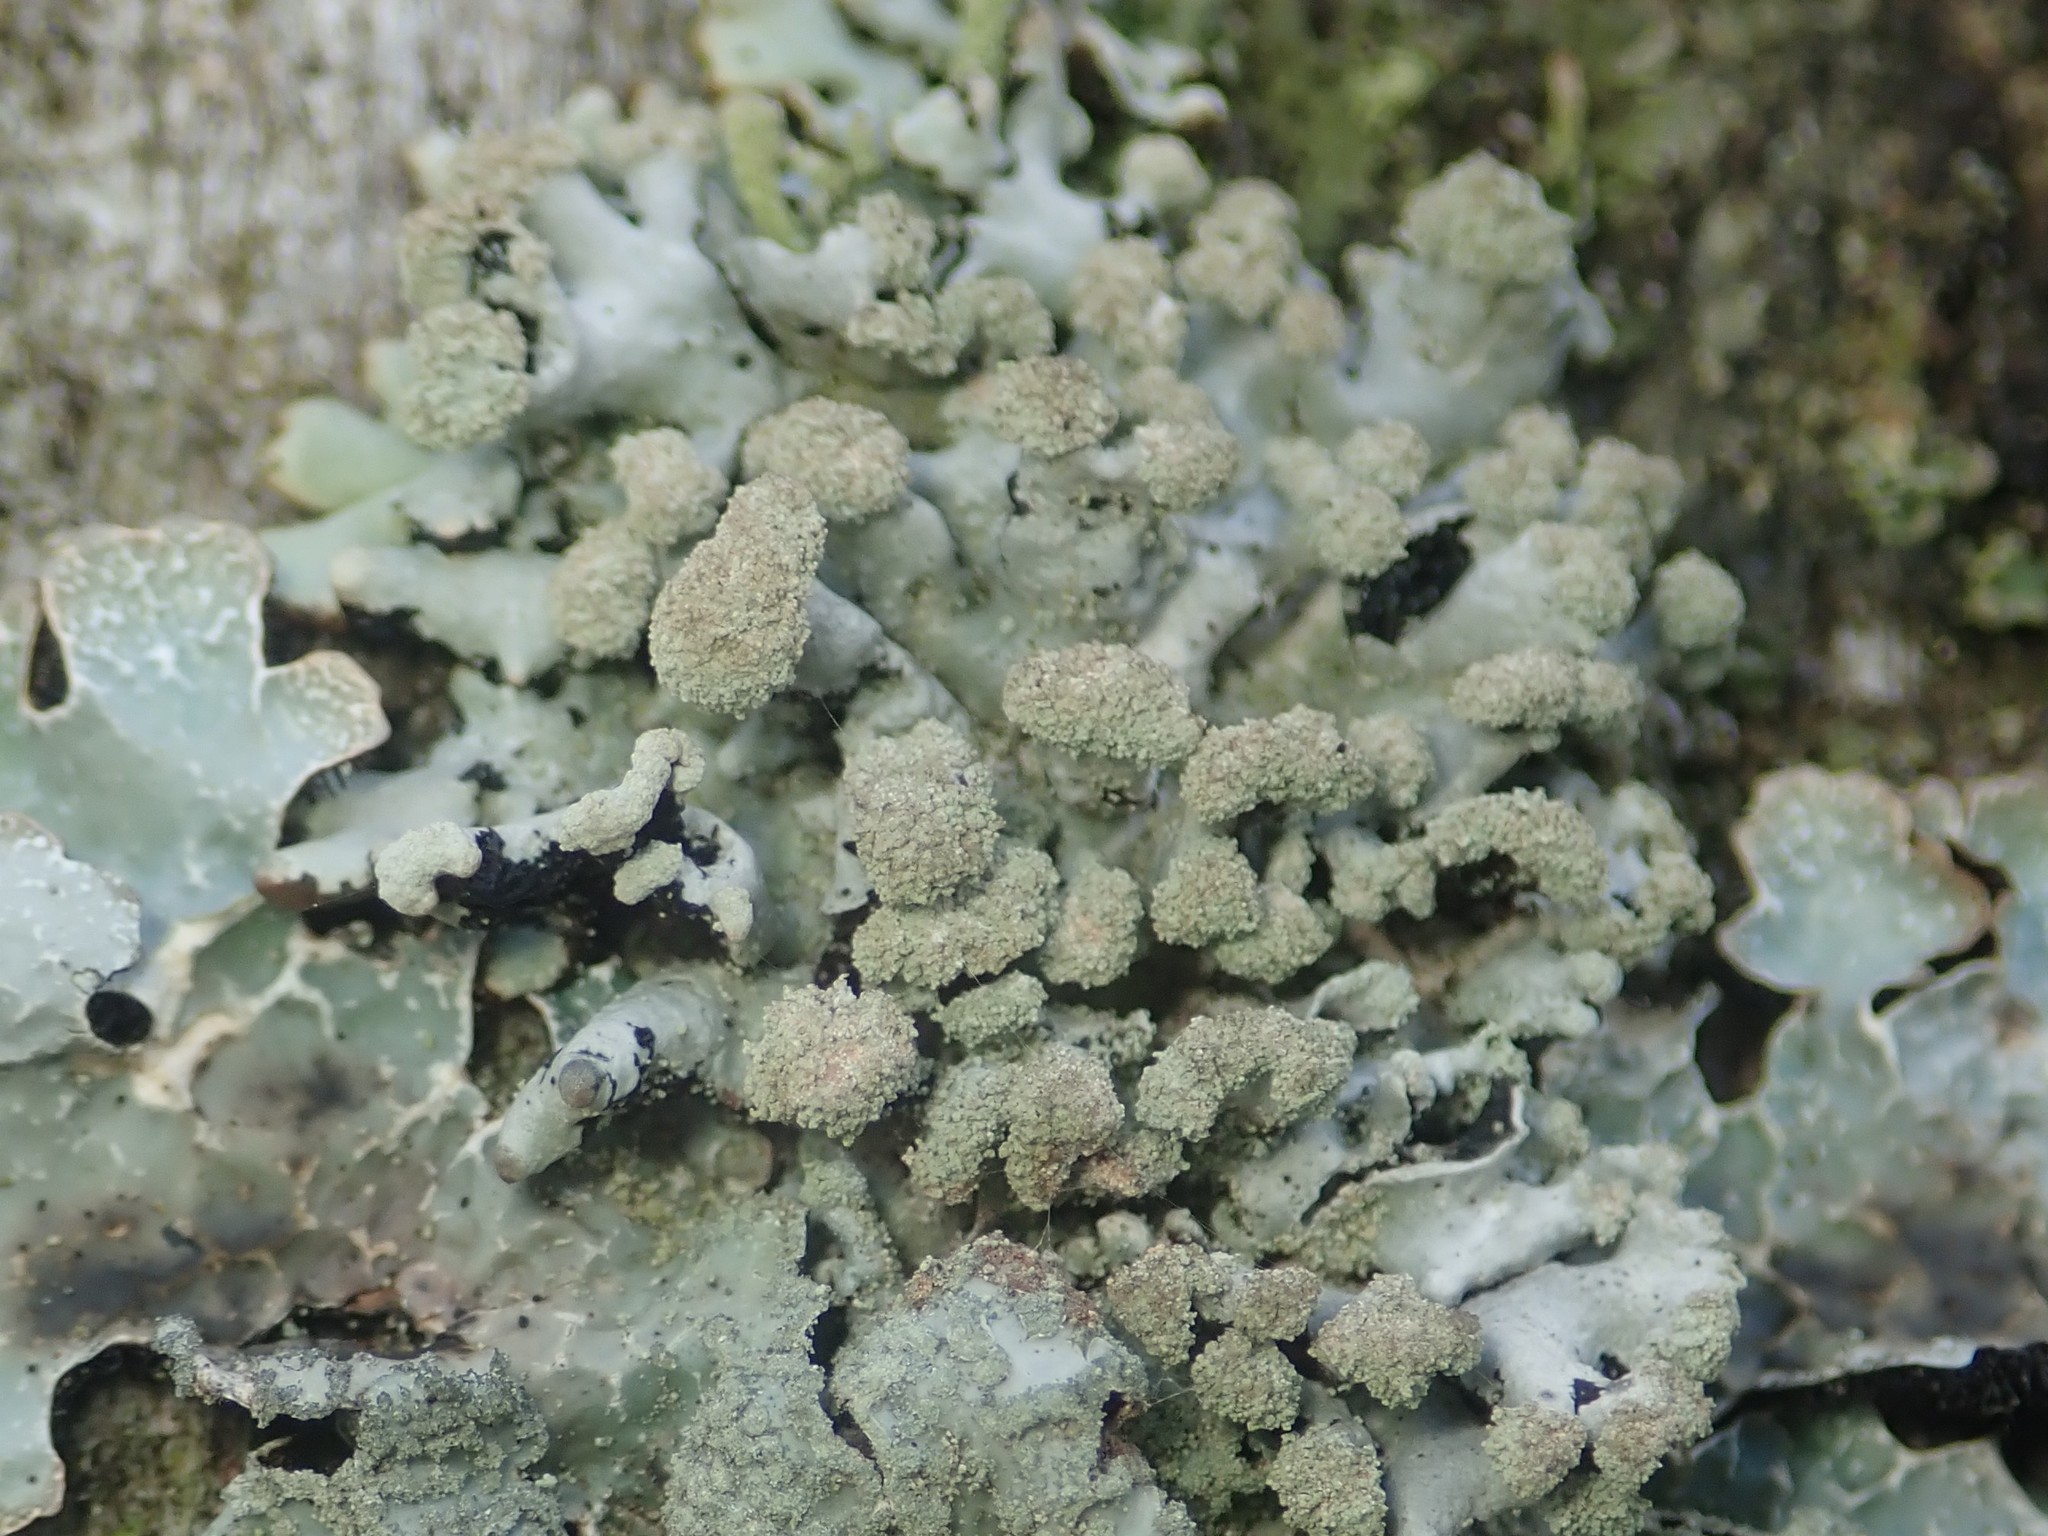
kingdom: Fungi
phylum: Ascomycota
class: Lecanoromycetes
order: Lecanorales
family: Parmeliaceae
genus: Hypogymnia
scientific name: Hypogymnia tubulosa
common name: Powder-headed tube lichen
